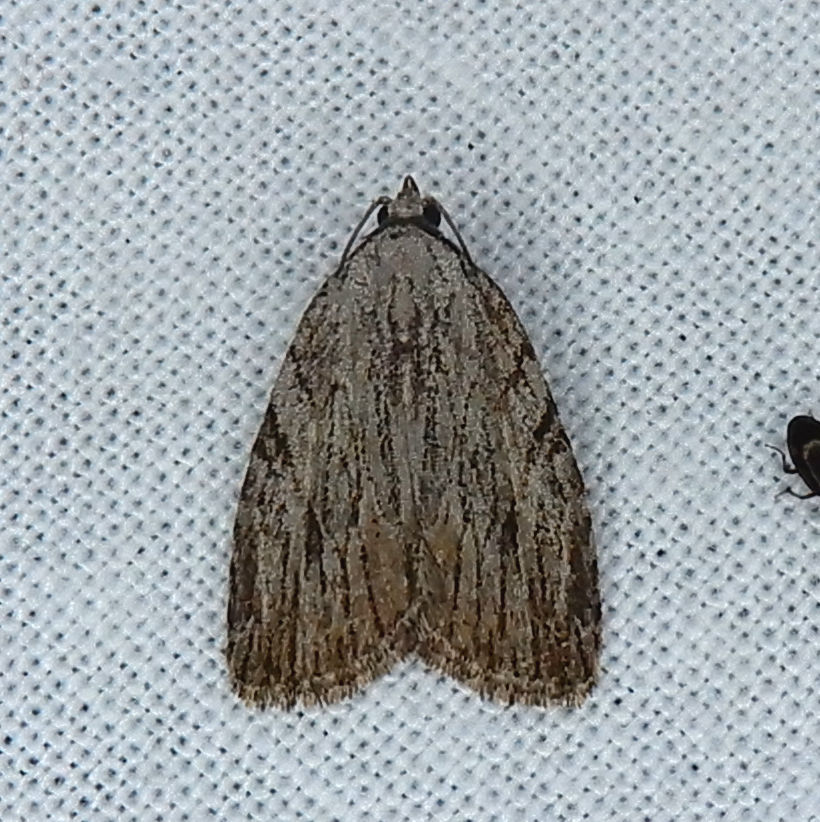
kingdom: Animalia
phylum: Arthropoda
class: Insecta
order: Lepidoptera
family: Noctuidae
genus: Balsa
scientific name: Balsa tristrigella
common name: Three-lined balsa moth
